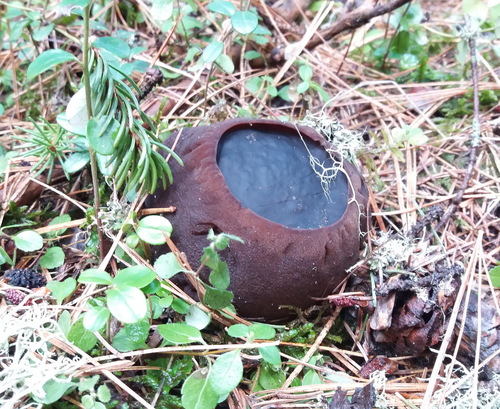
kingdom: Fungi
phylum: Ascomycota
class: Pezizomycetes
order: Pezizales
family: Sarcosomataceae
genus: Sarcosoma
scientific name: Sarcosoma globosum
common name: Charred-pancake cup
